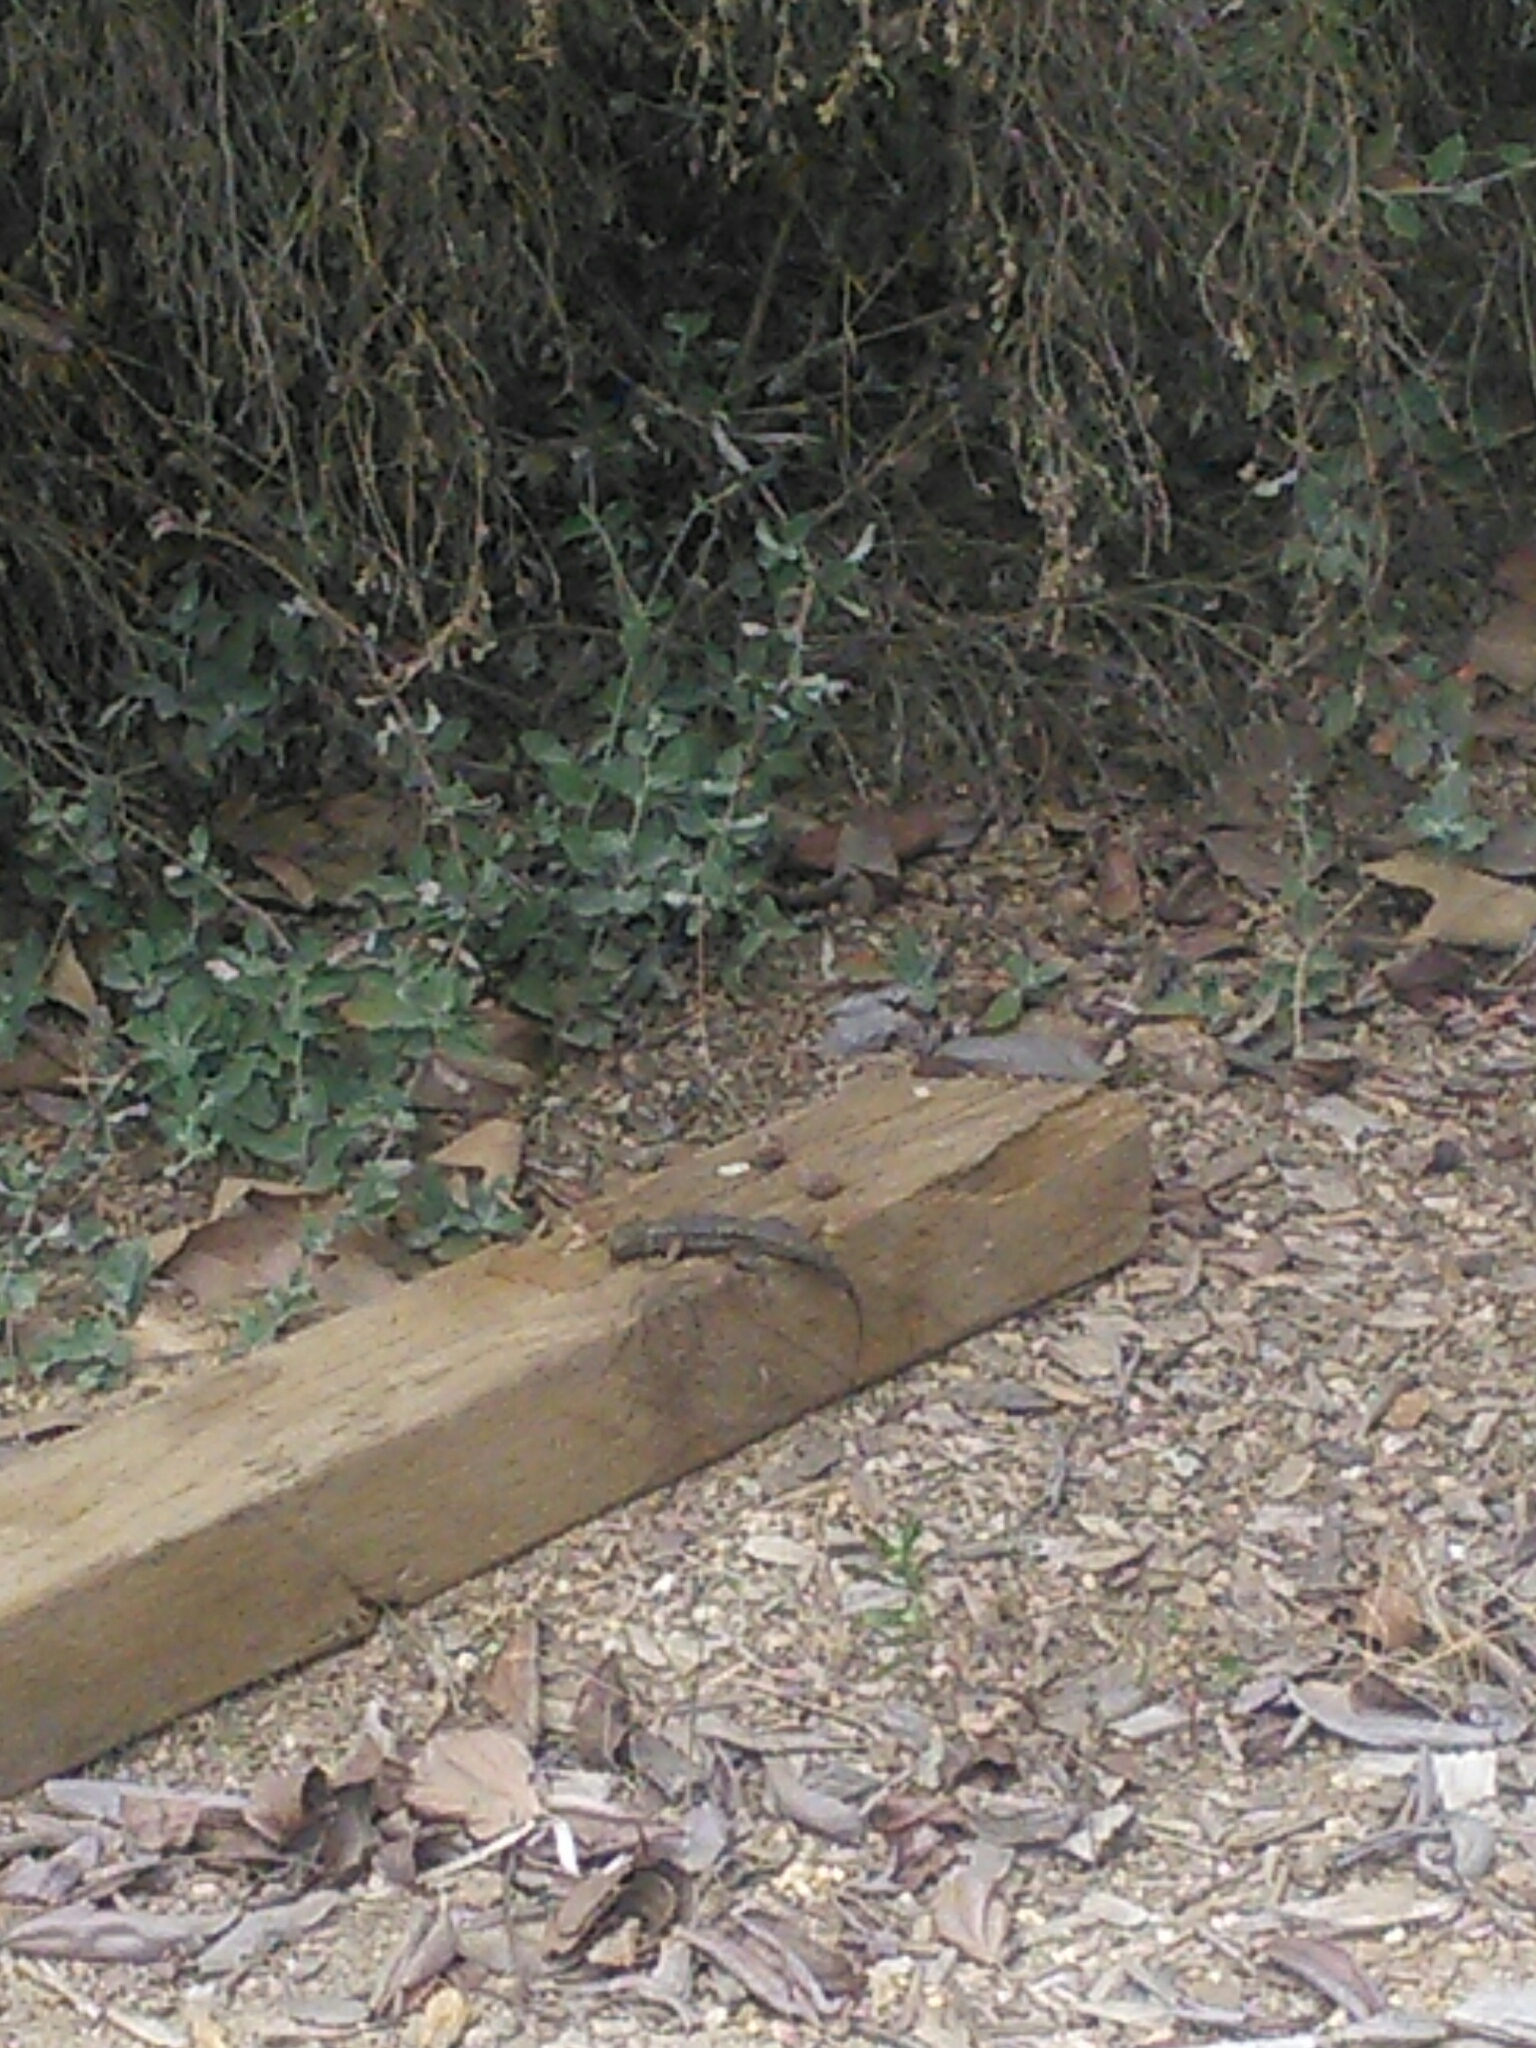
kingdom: Animalia
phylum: Chordata
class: Squamata
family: Phrynosomatidae
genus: Sceloporus
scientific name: Sceloporus occidentalis
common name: Western fence lizard
